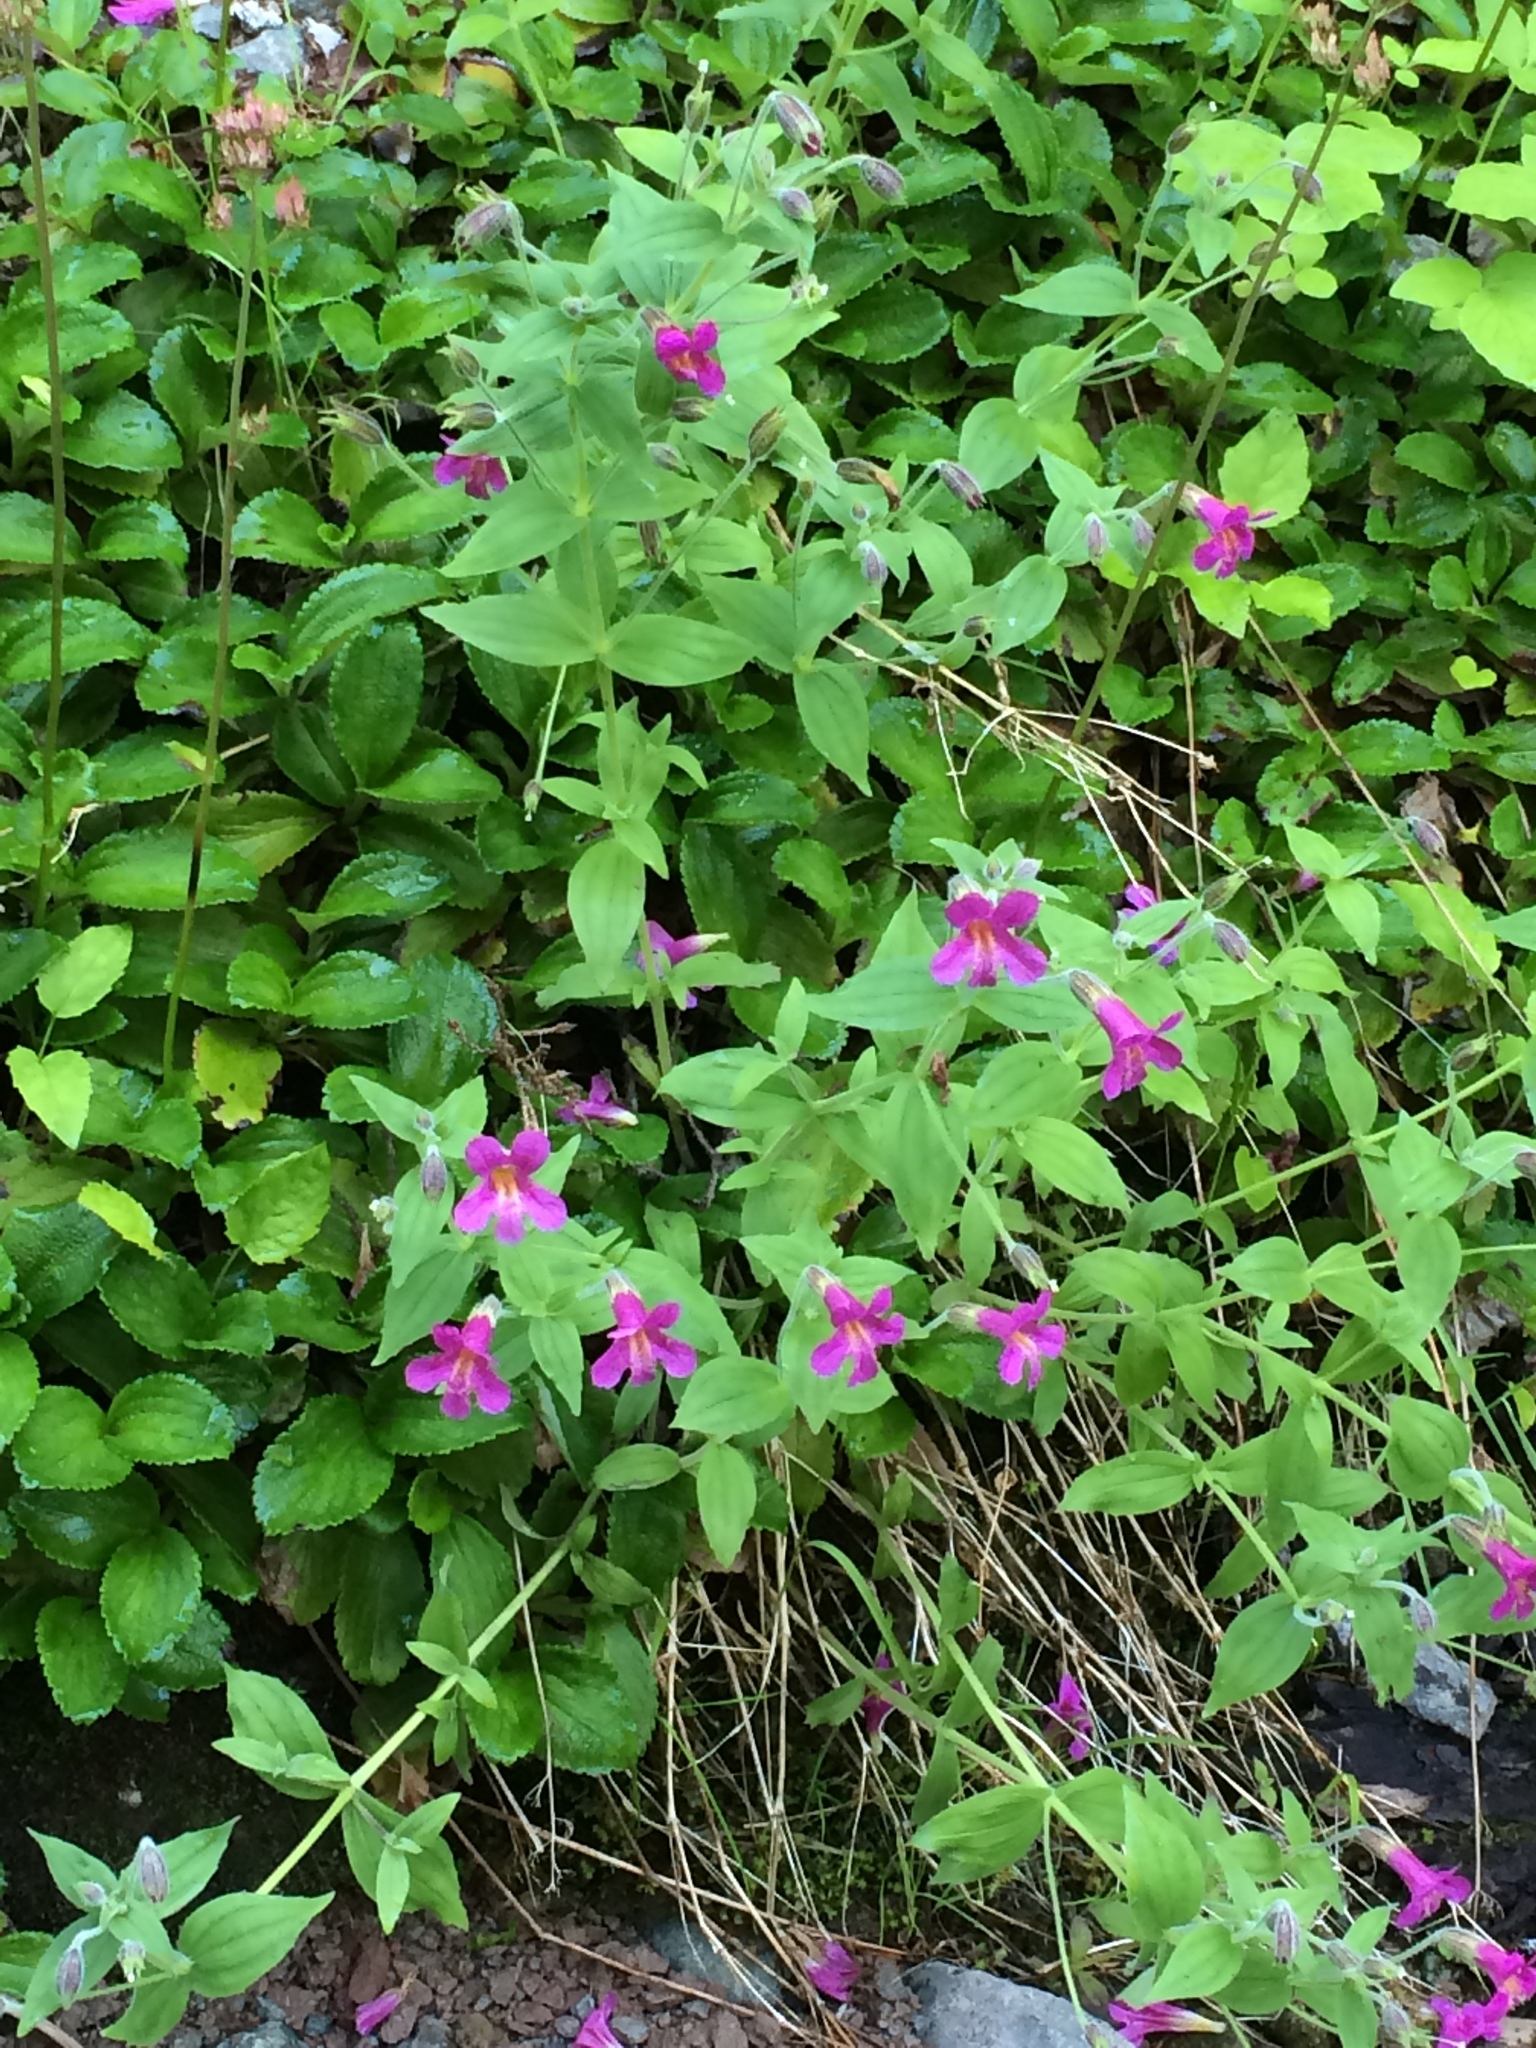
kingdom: Plantae
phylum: Tracheophyta
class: Magnoliopsida
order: Lamiales
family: Phrymaceae
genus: Erythranthe
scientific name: Erythranthe lewisii
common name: Lewis's monkey-flower
